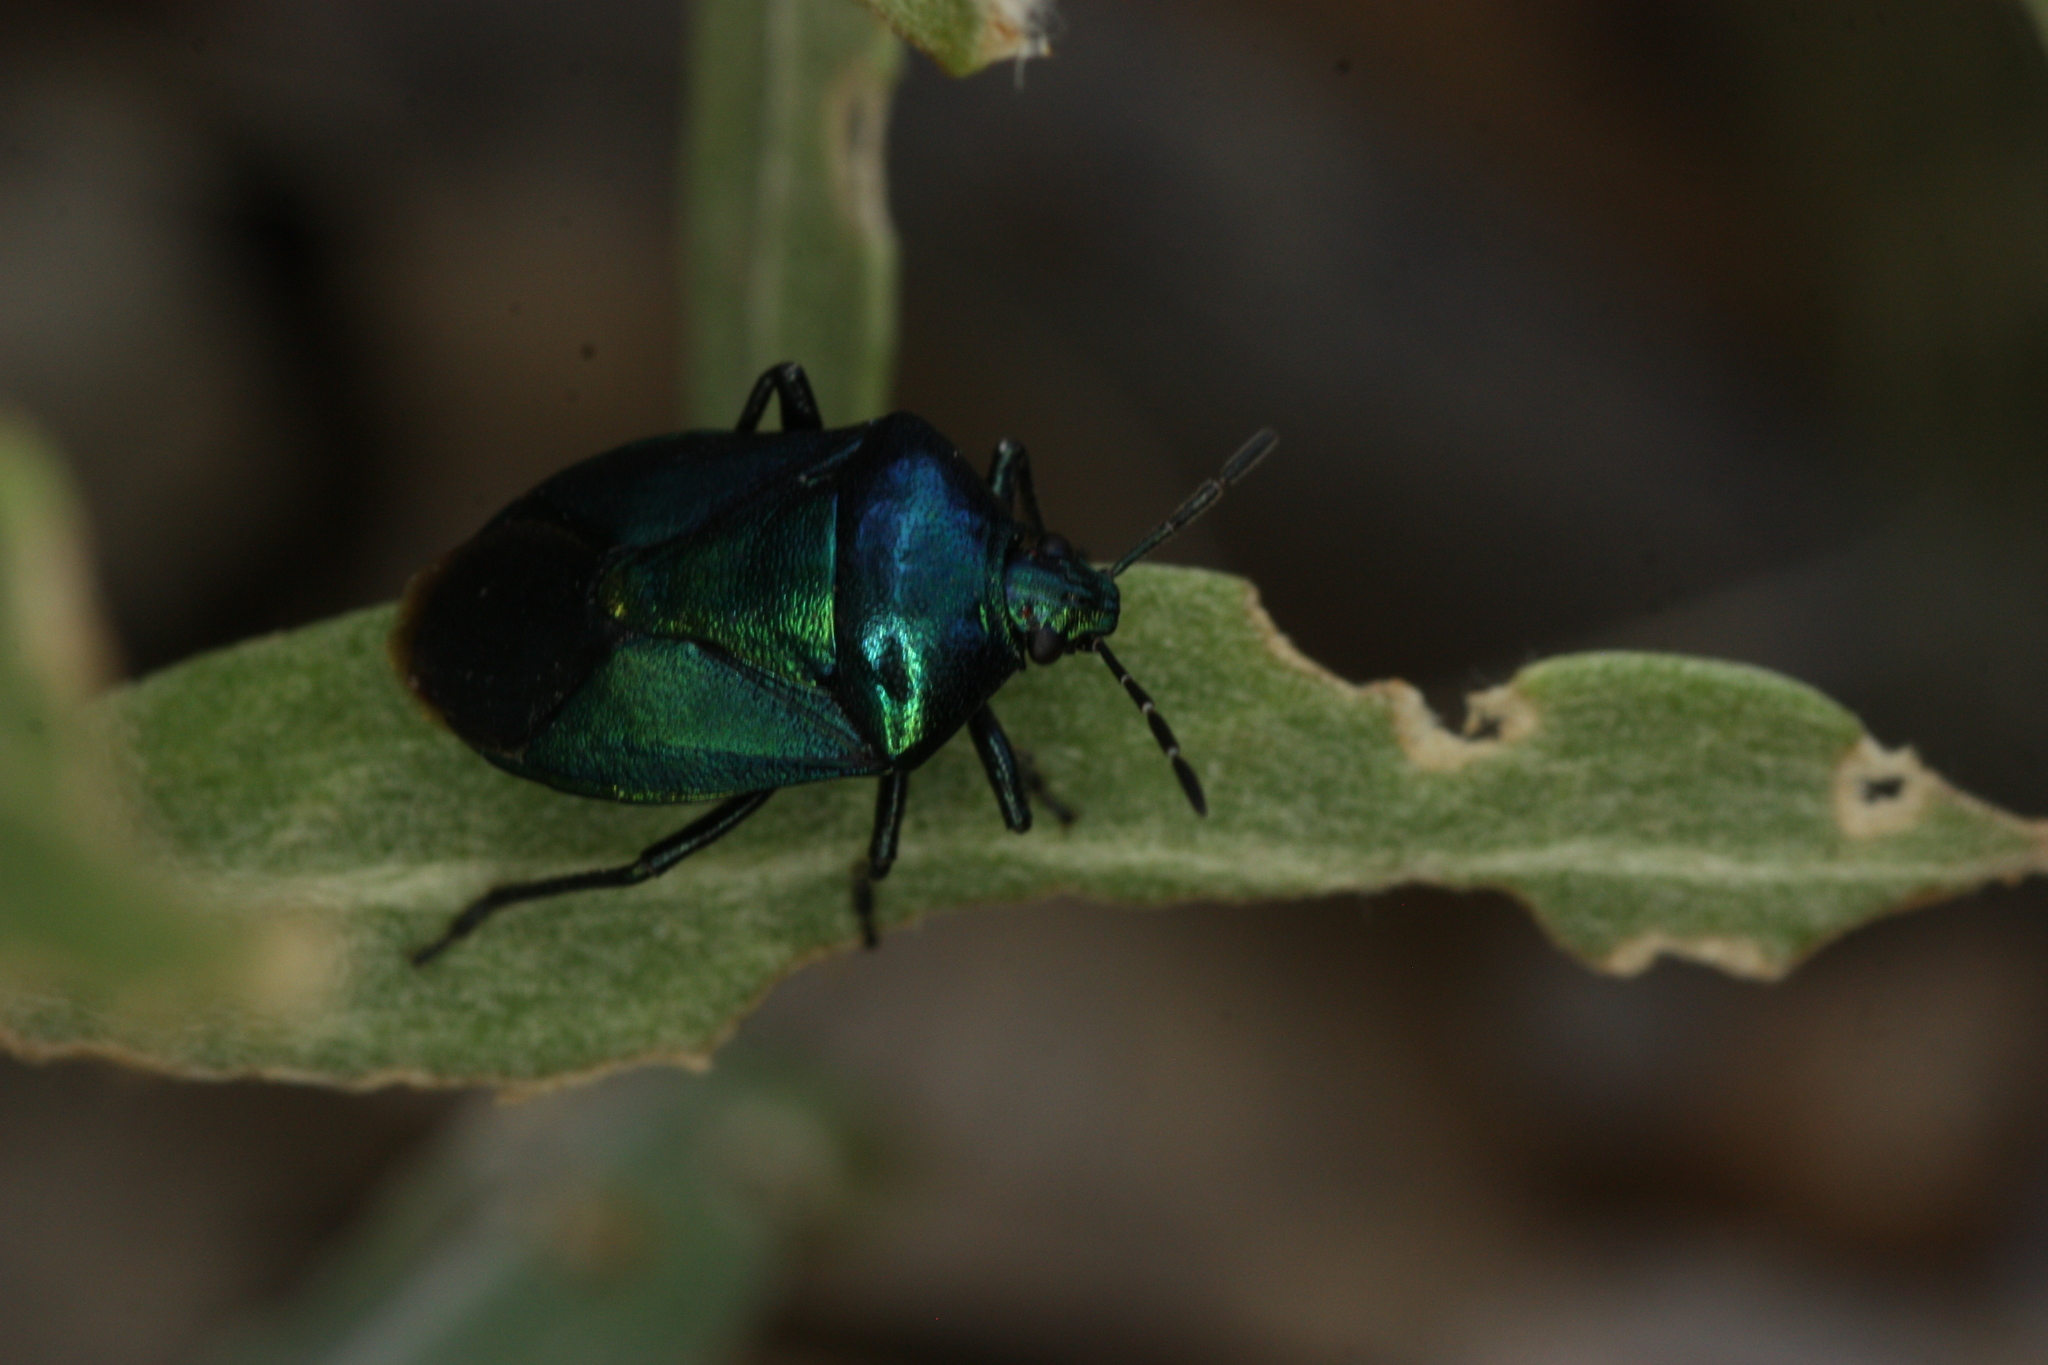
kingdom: Animalia
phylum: Arthropoda
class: Insecta
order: Hemiptera
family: Pentatomidae
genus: Zicrona
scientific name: Zicrona
